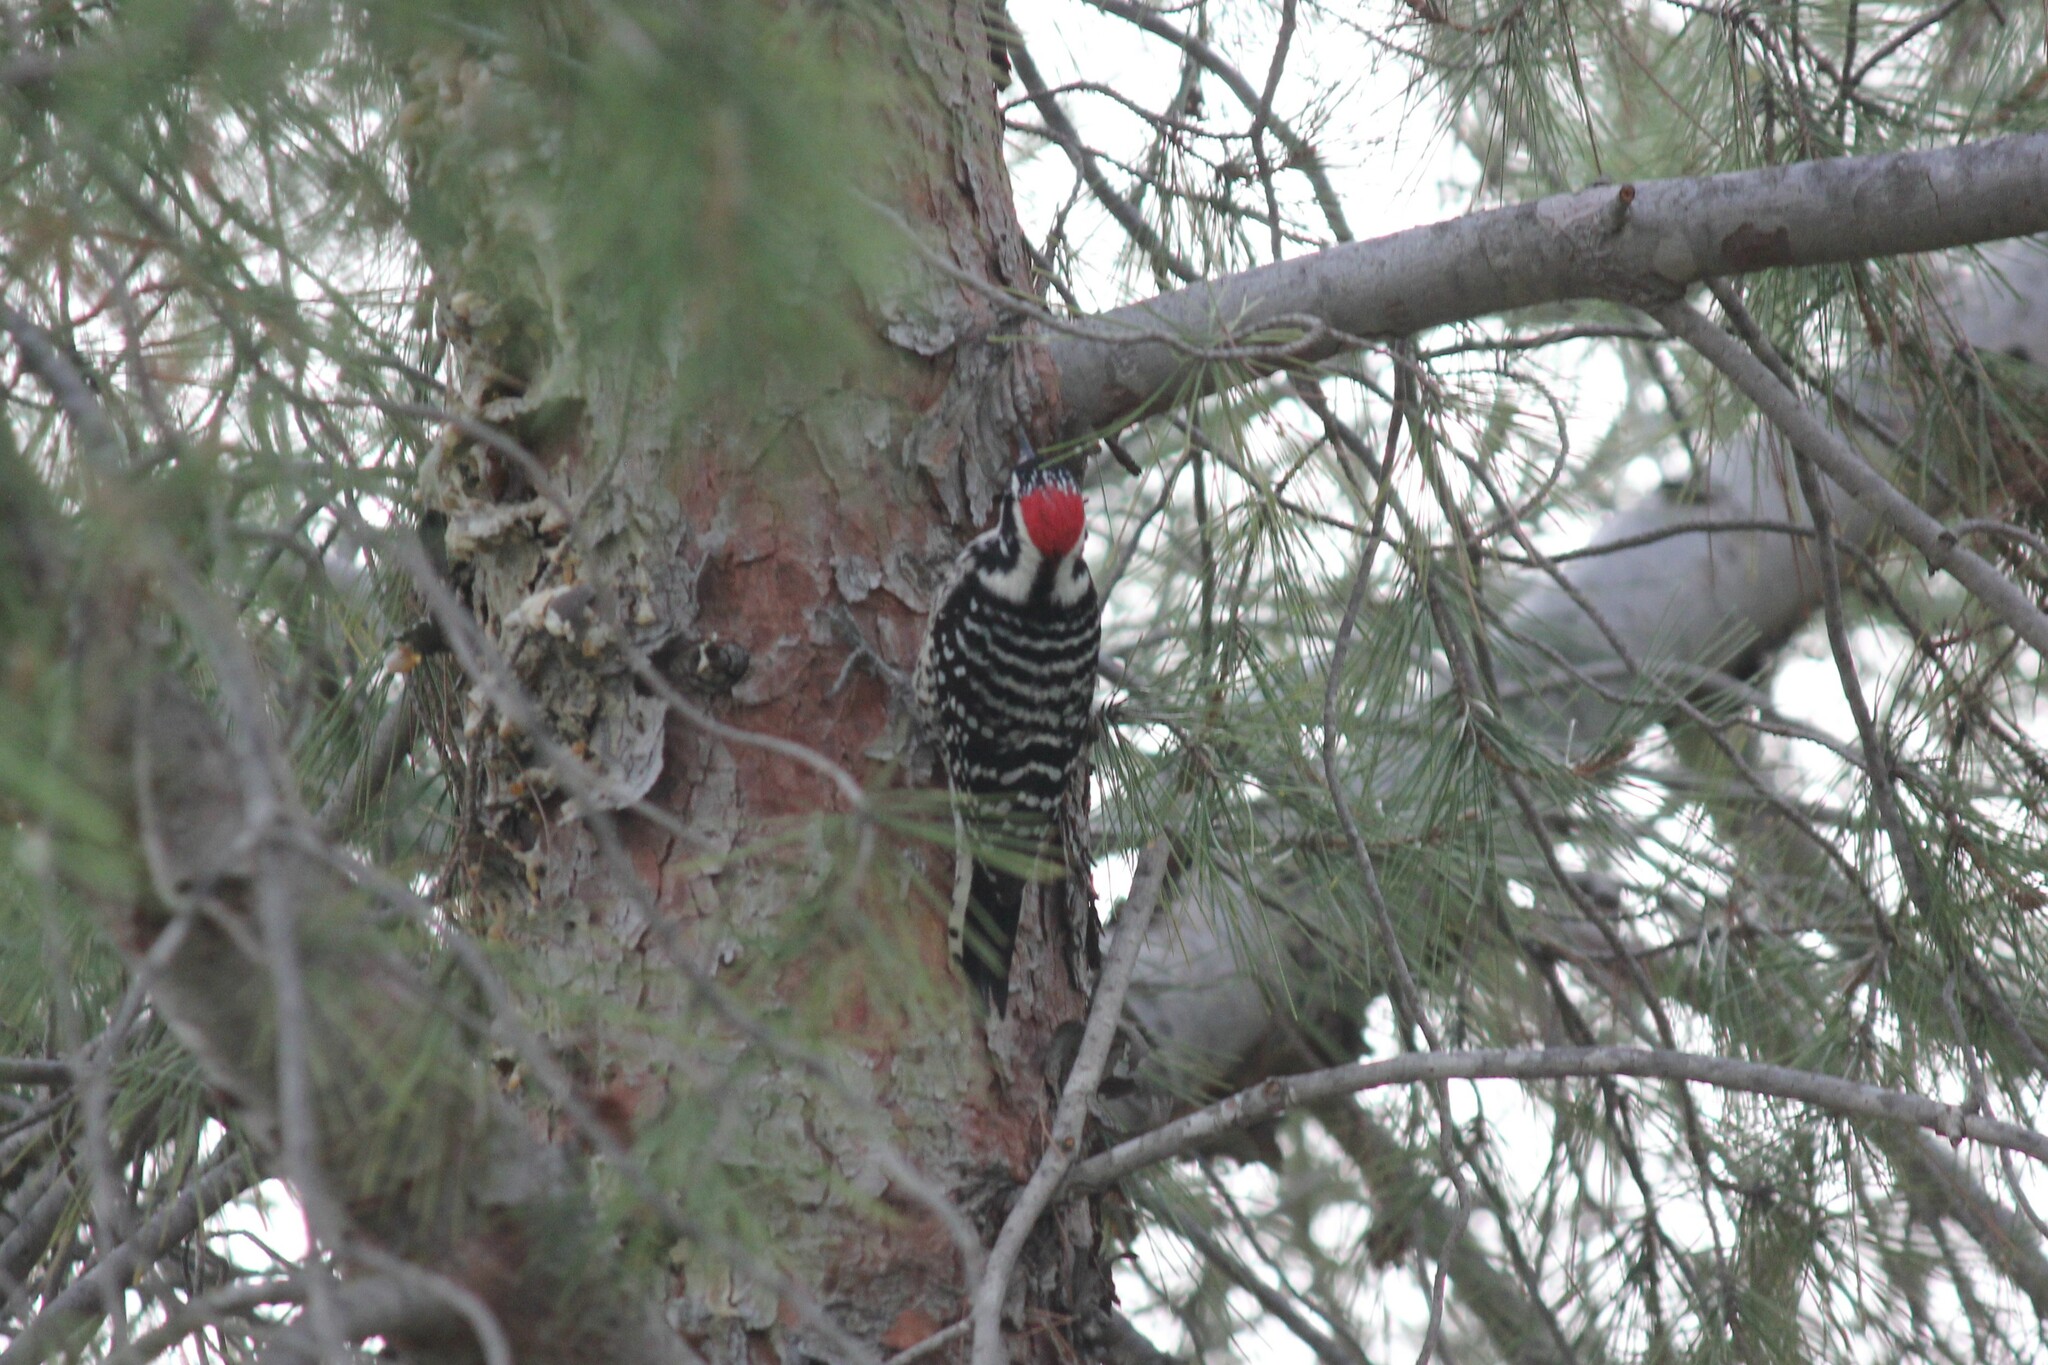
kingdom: Animalia
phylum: Chordata
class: Aves
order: Piciformes
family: Picidae
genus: Dryobates
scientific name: Dryobates nuttallii
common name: Nuttall's woodpecker
